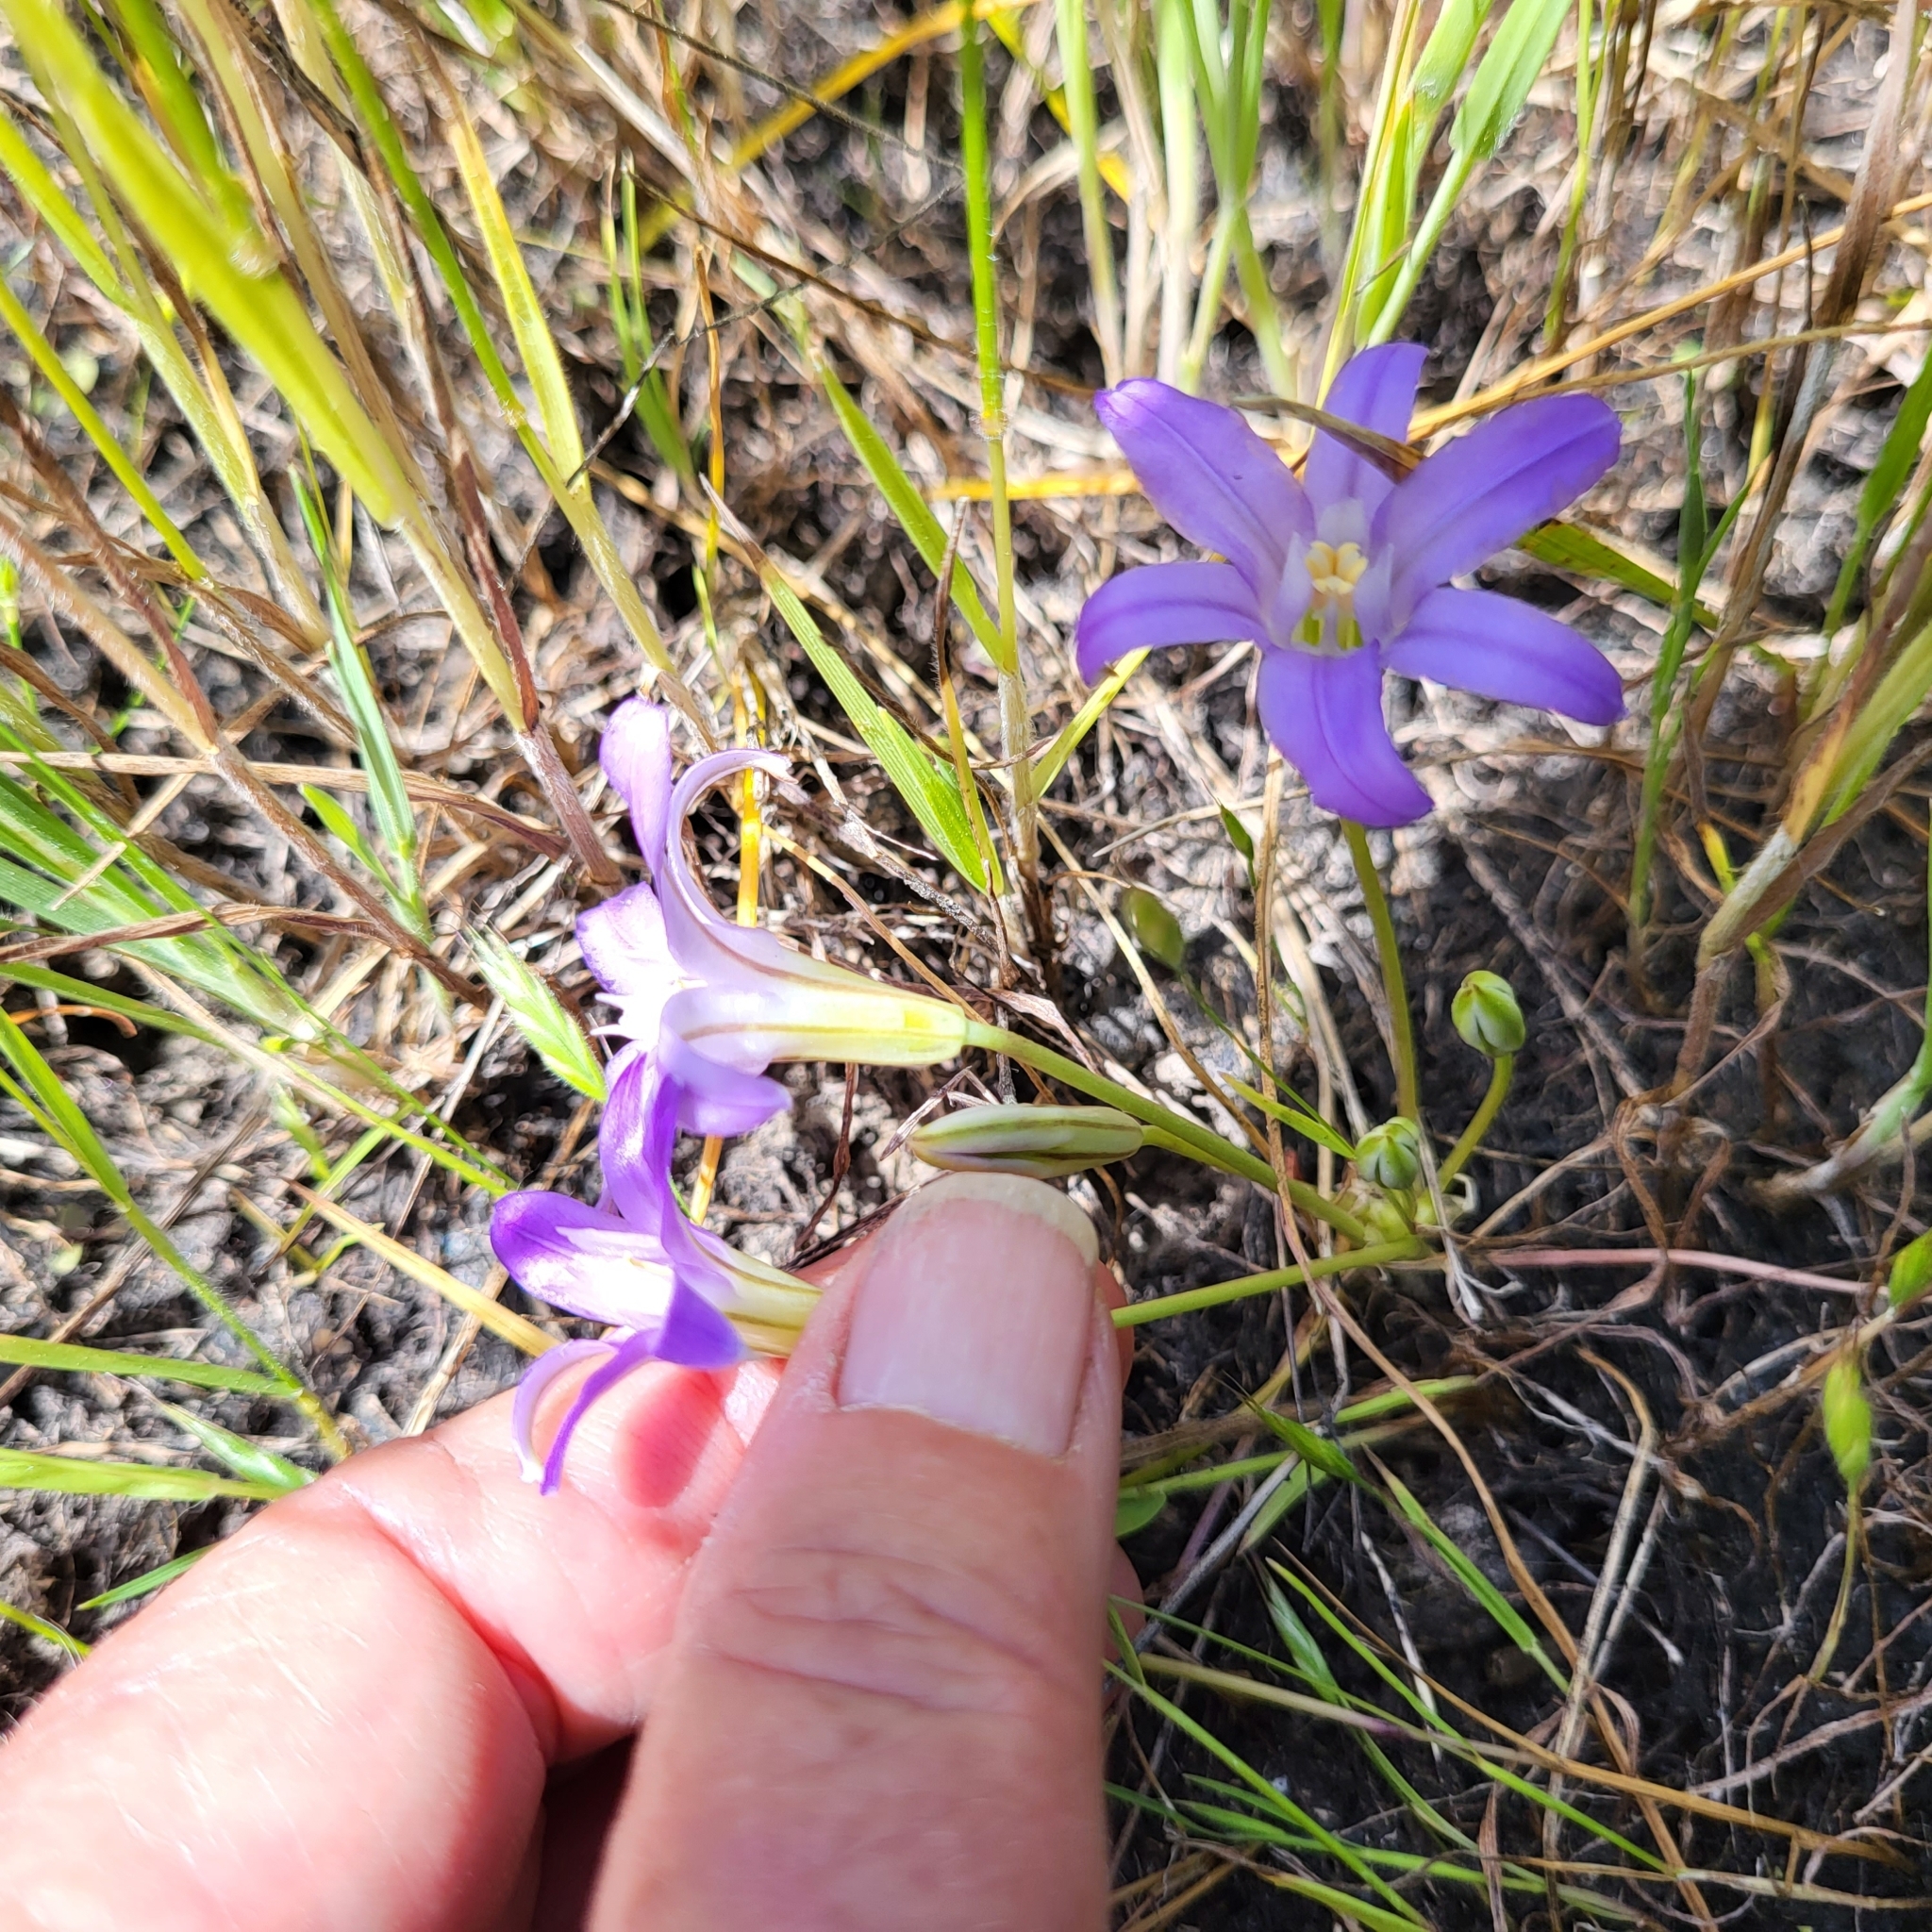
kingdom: Plantae
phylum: Tracheophyta
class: Liliopsida
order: Asparagales
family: Asparagaceae
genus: Brodiaea
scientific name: Brodiaea terrestris
